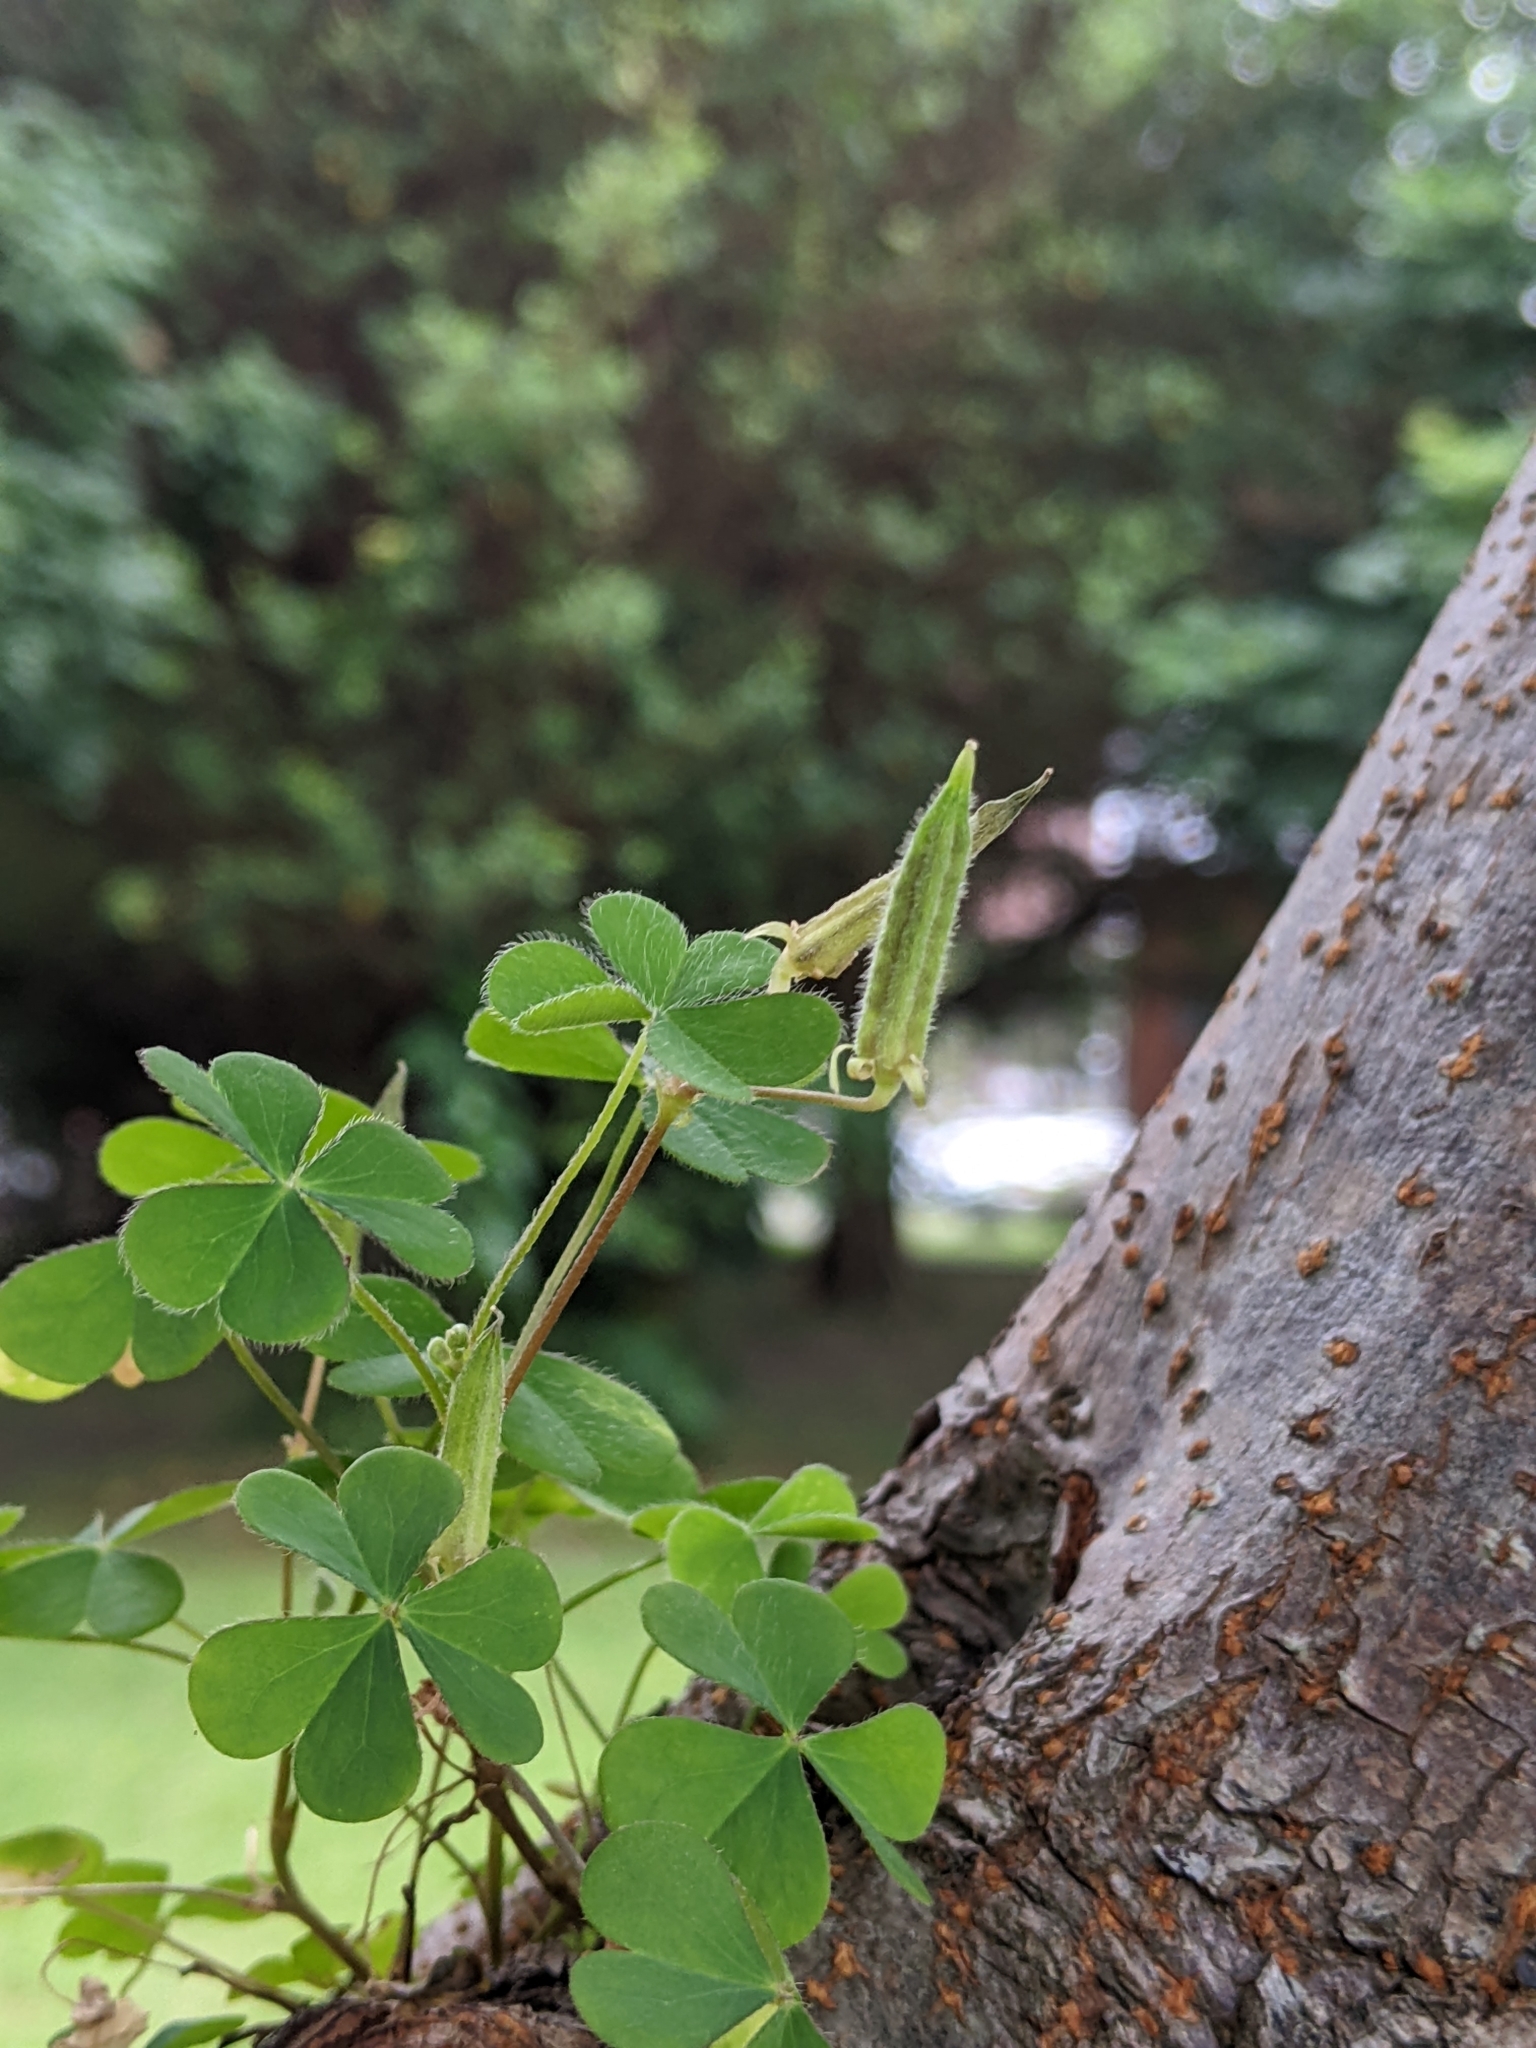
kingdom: Plantae
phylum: Tracheophyta
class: Magnoliopsida
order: Oxalidales
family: Oxalidaceae
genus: Oxalis
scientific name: Oxalis corniculata
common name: Procumbent yellow-sorrel
